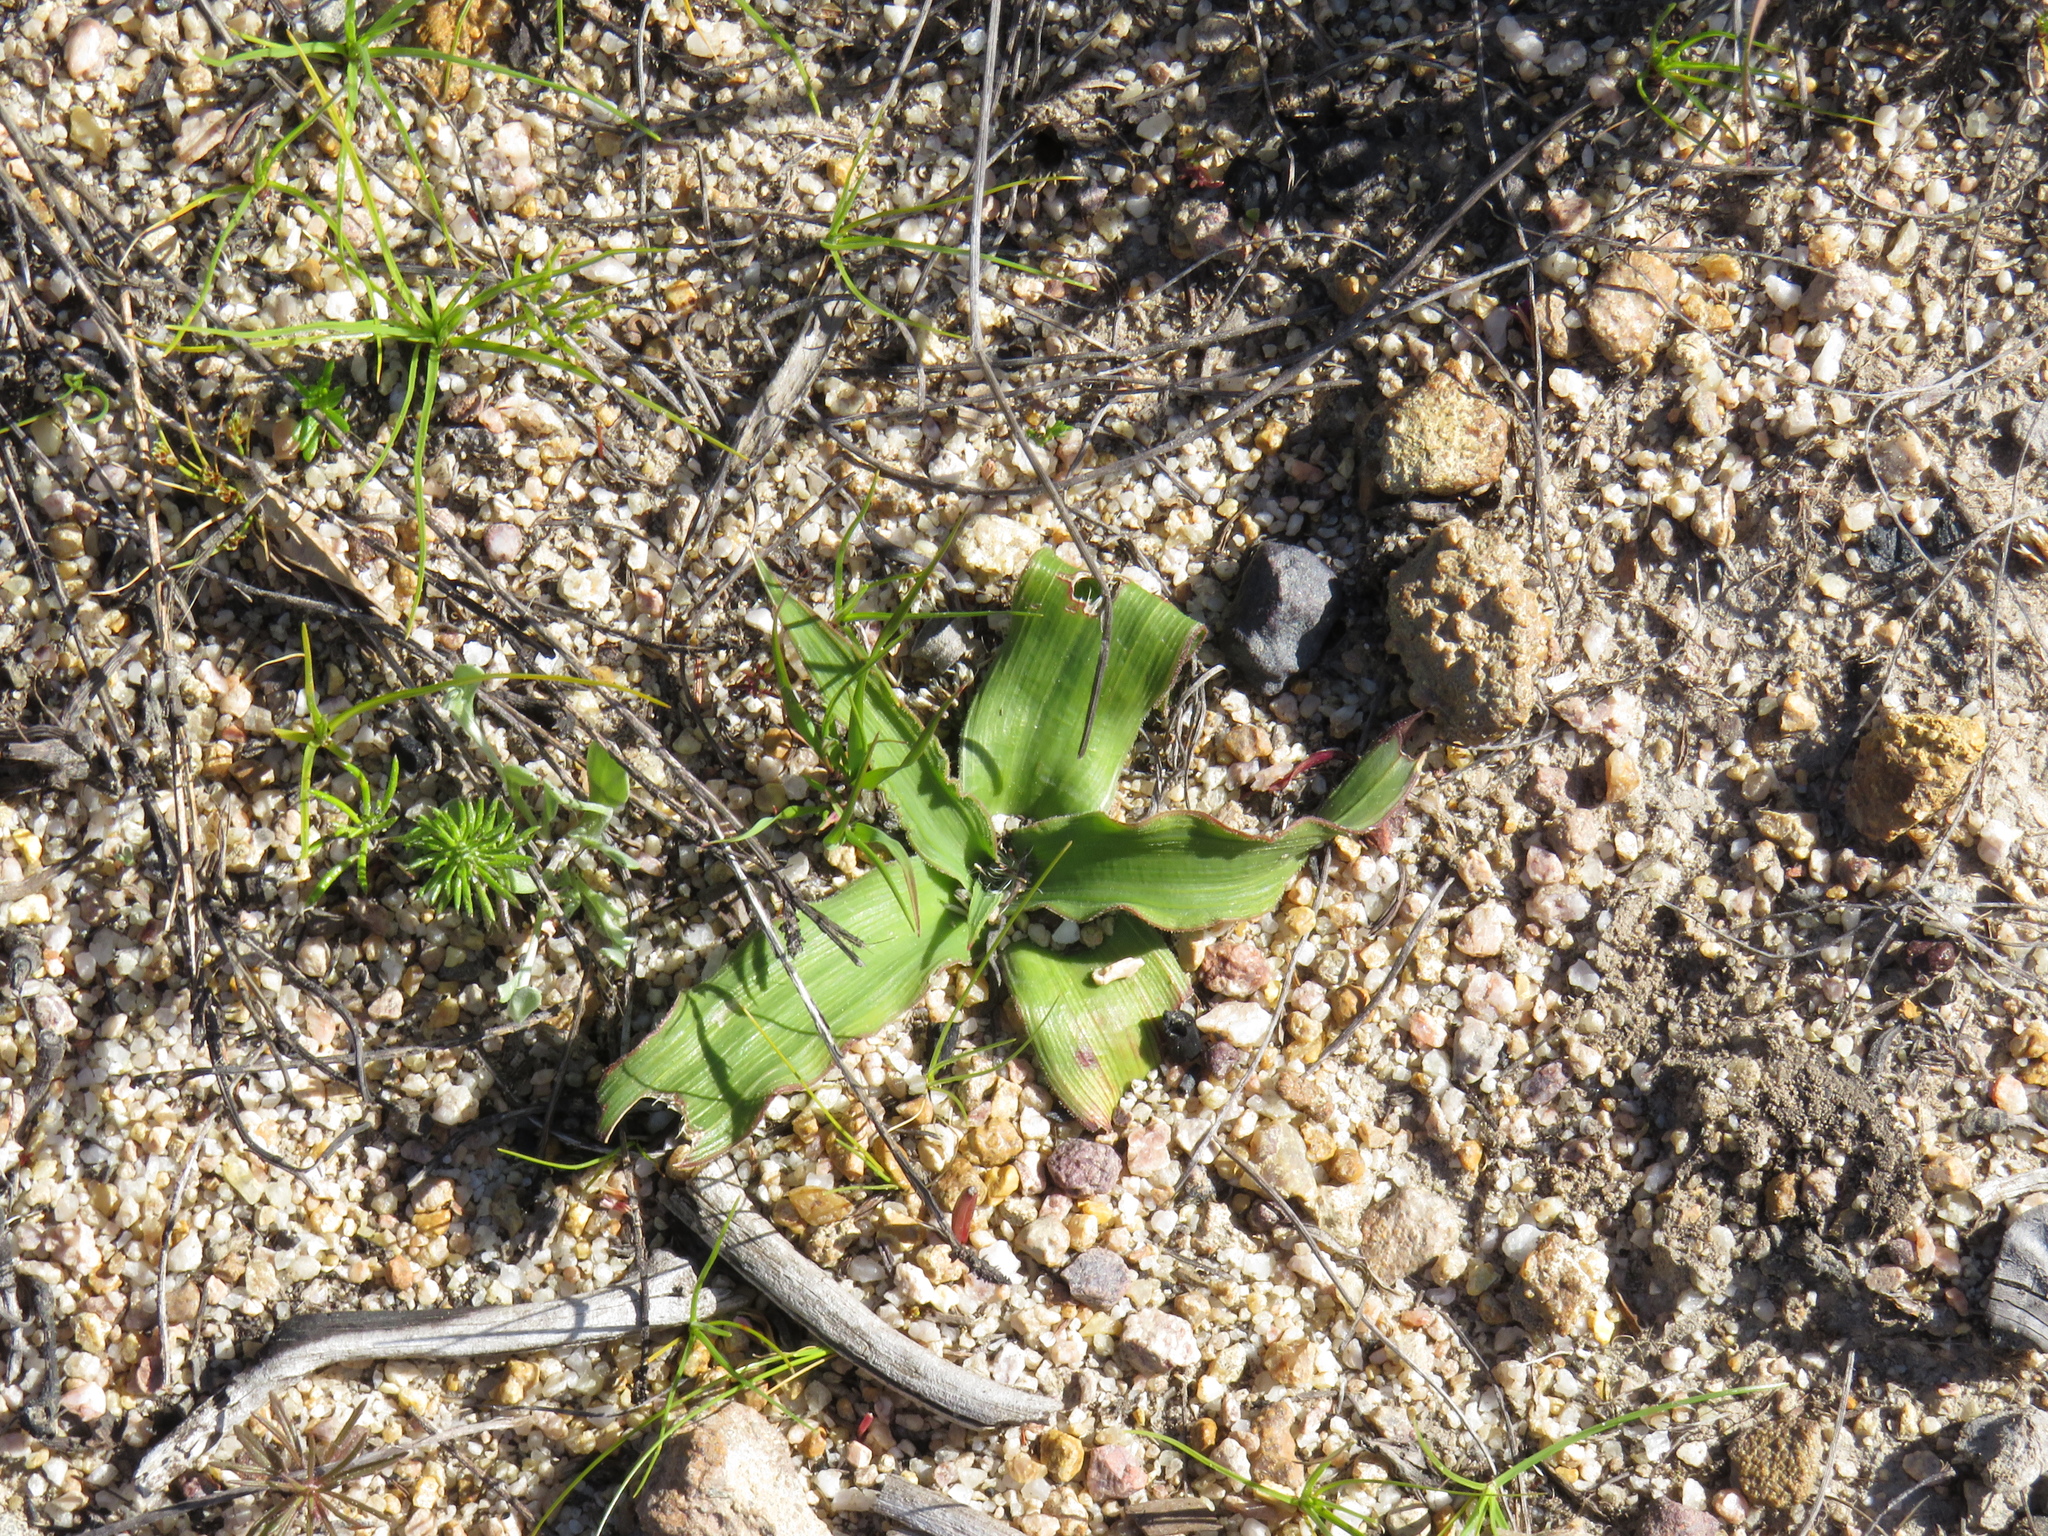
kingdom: Plantae
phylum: Tracheophyta
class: Liliopsida
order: Asparagales
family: Tecophilaeaceae
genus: Cyanella
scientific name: Cyanella hyacinthoides
